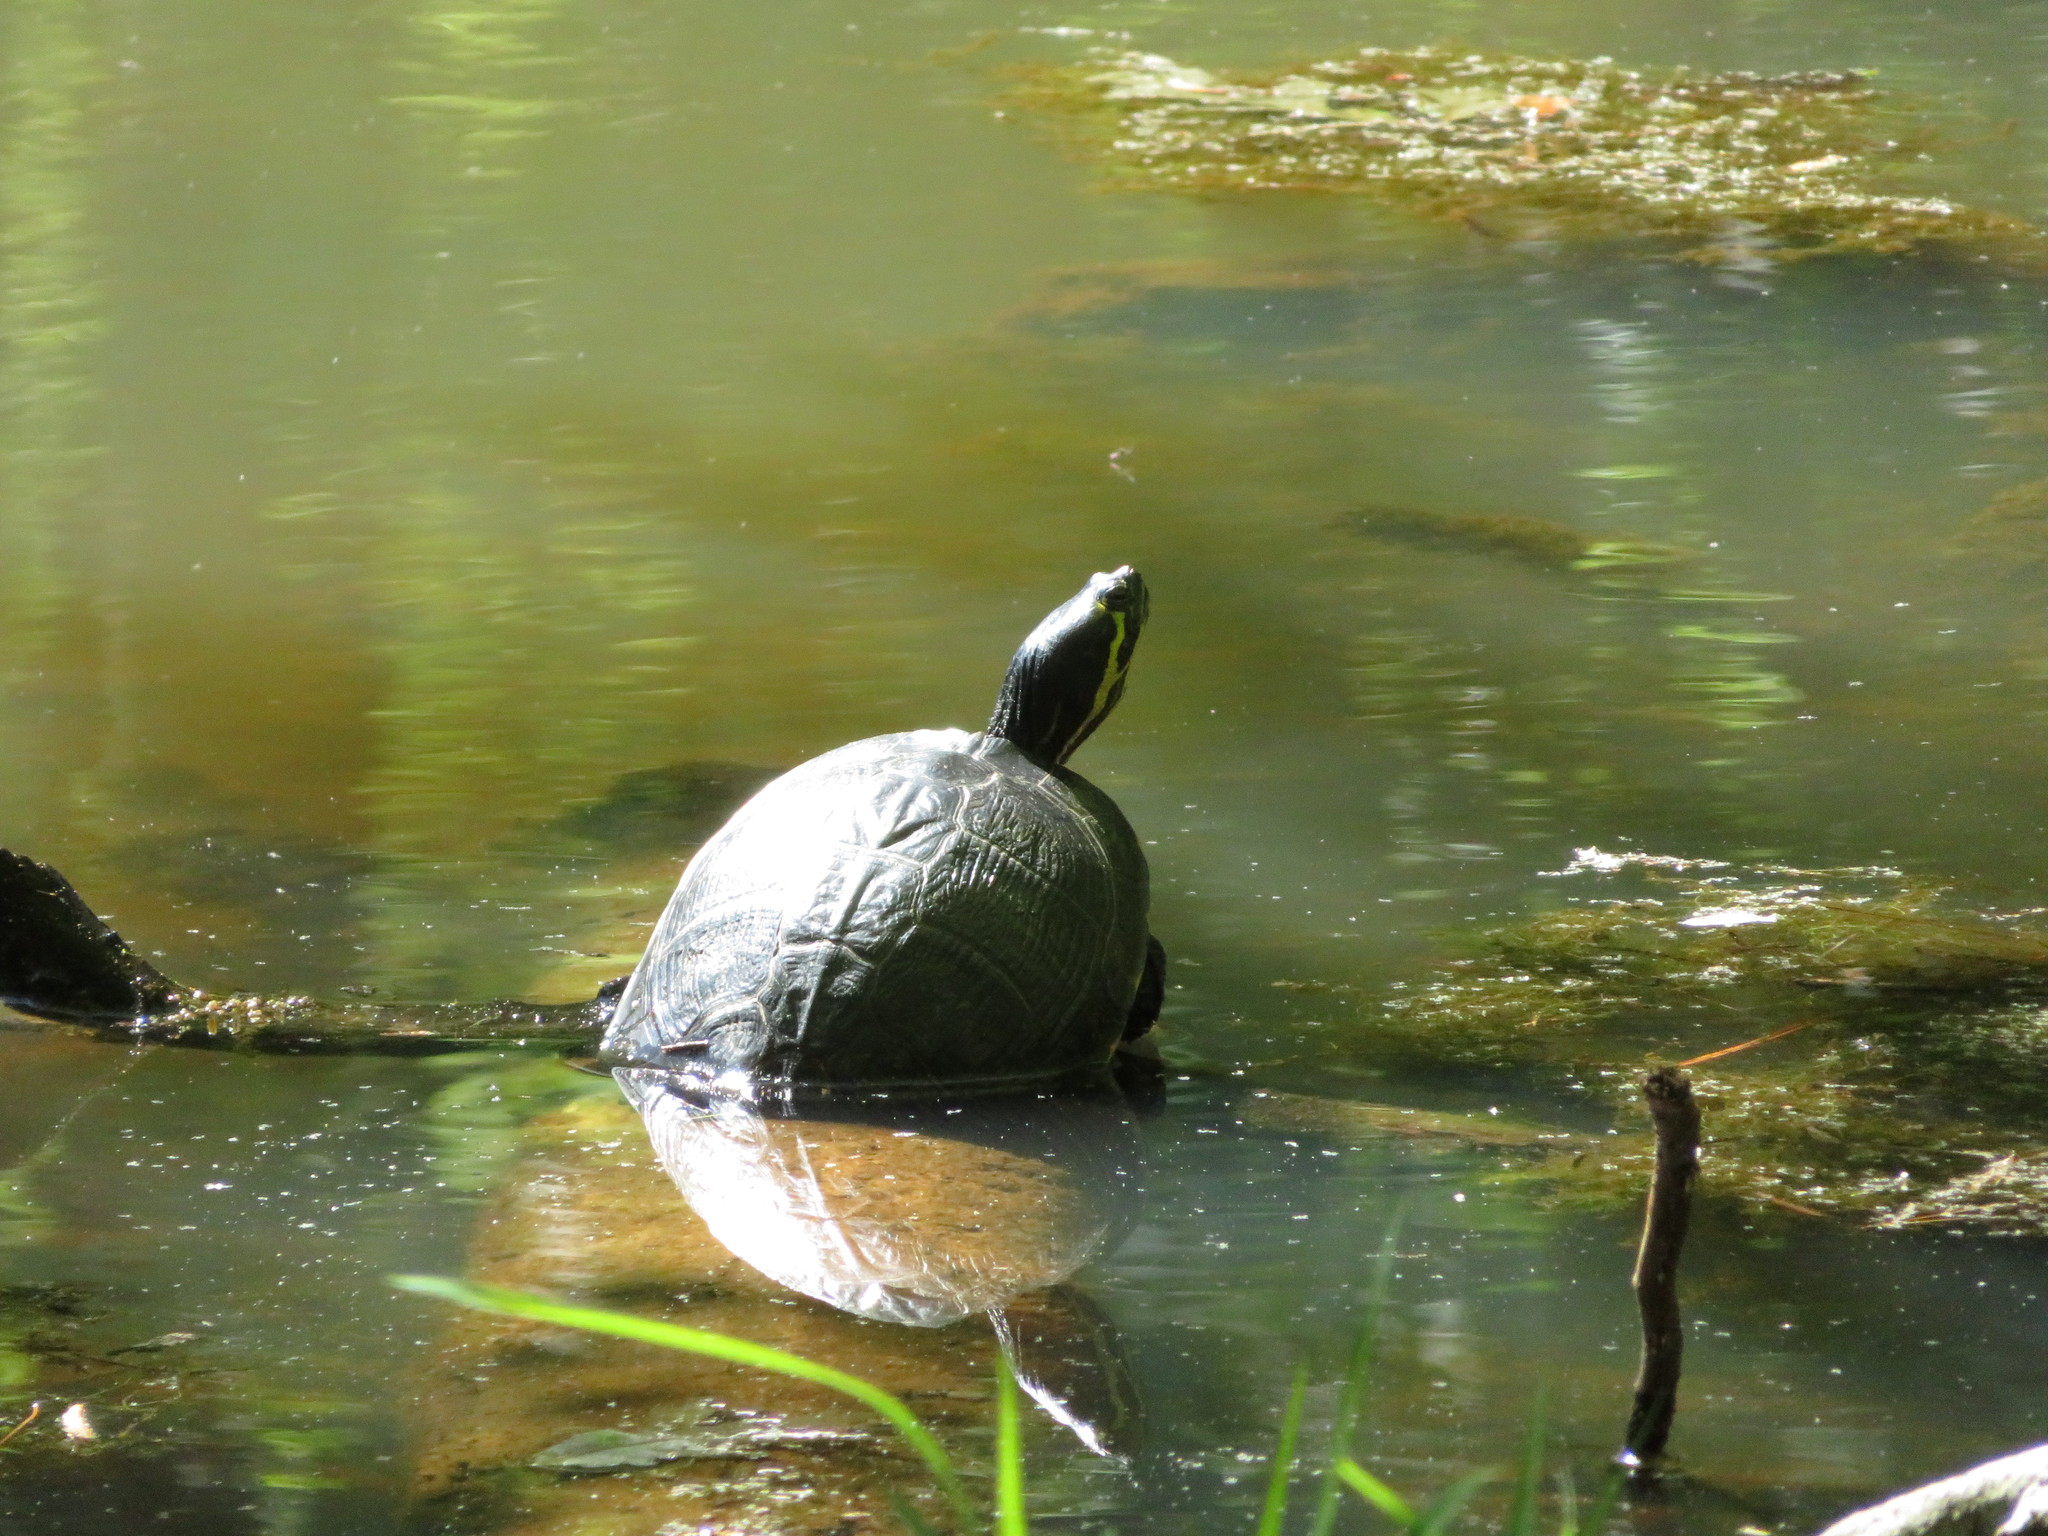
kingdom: Animalia
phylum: Chordata
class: Testudines
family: Emydidae
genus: Trachemys
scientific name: Trachemys scripta
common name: Slider
